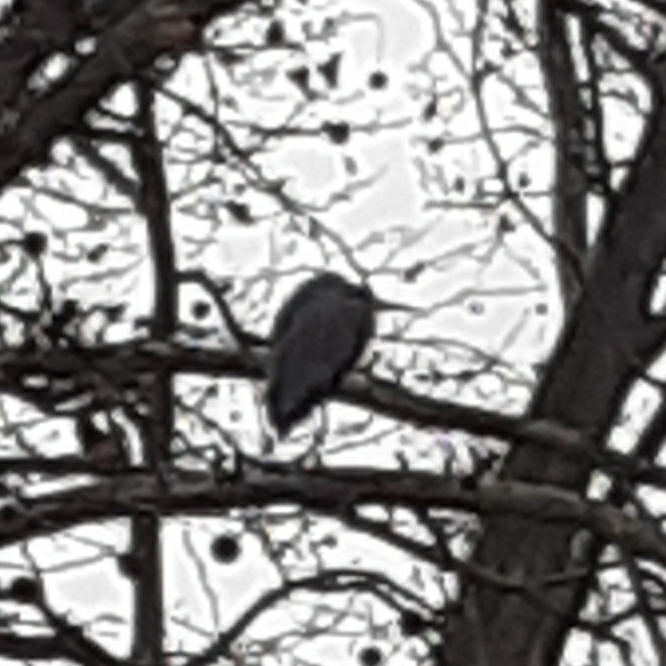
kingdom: Animalia
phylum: Chordata
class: Aves
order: Pelecaniformes
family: Ardeidae
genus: Ardea
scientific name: Ardea cinerea
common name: Grey heron
